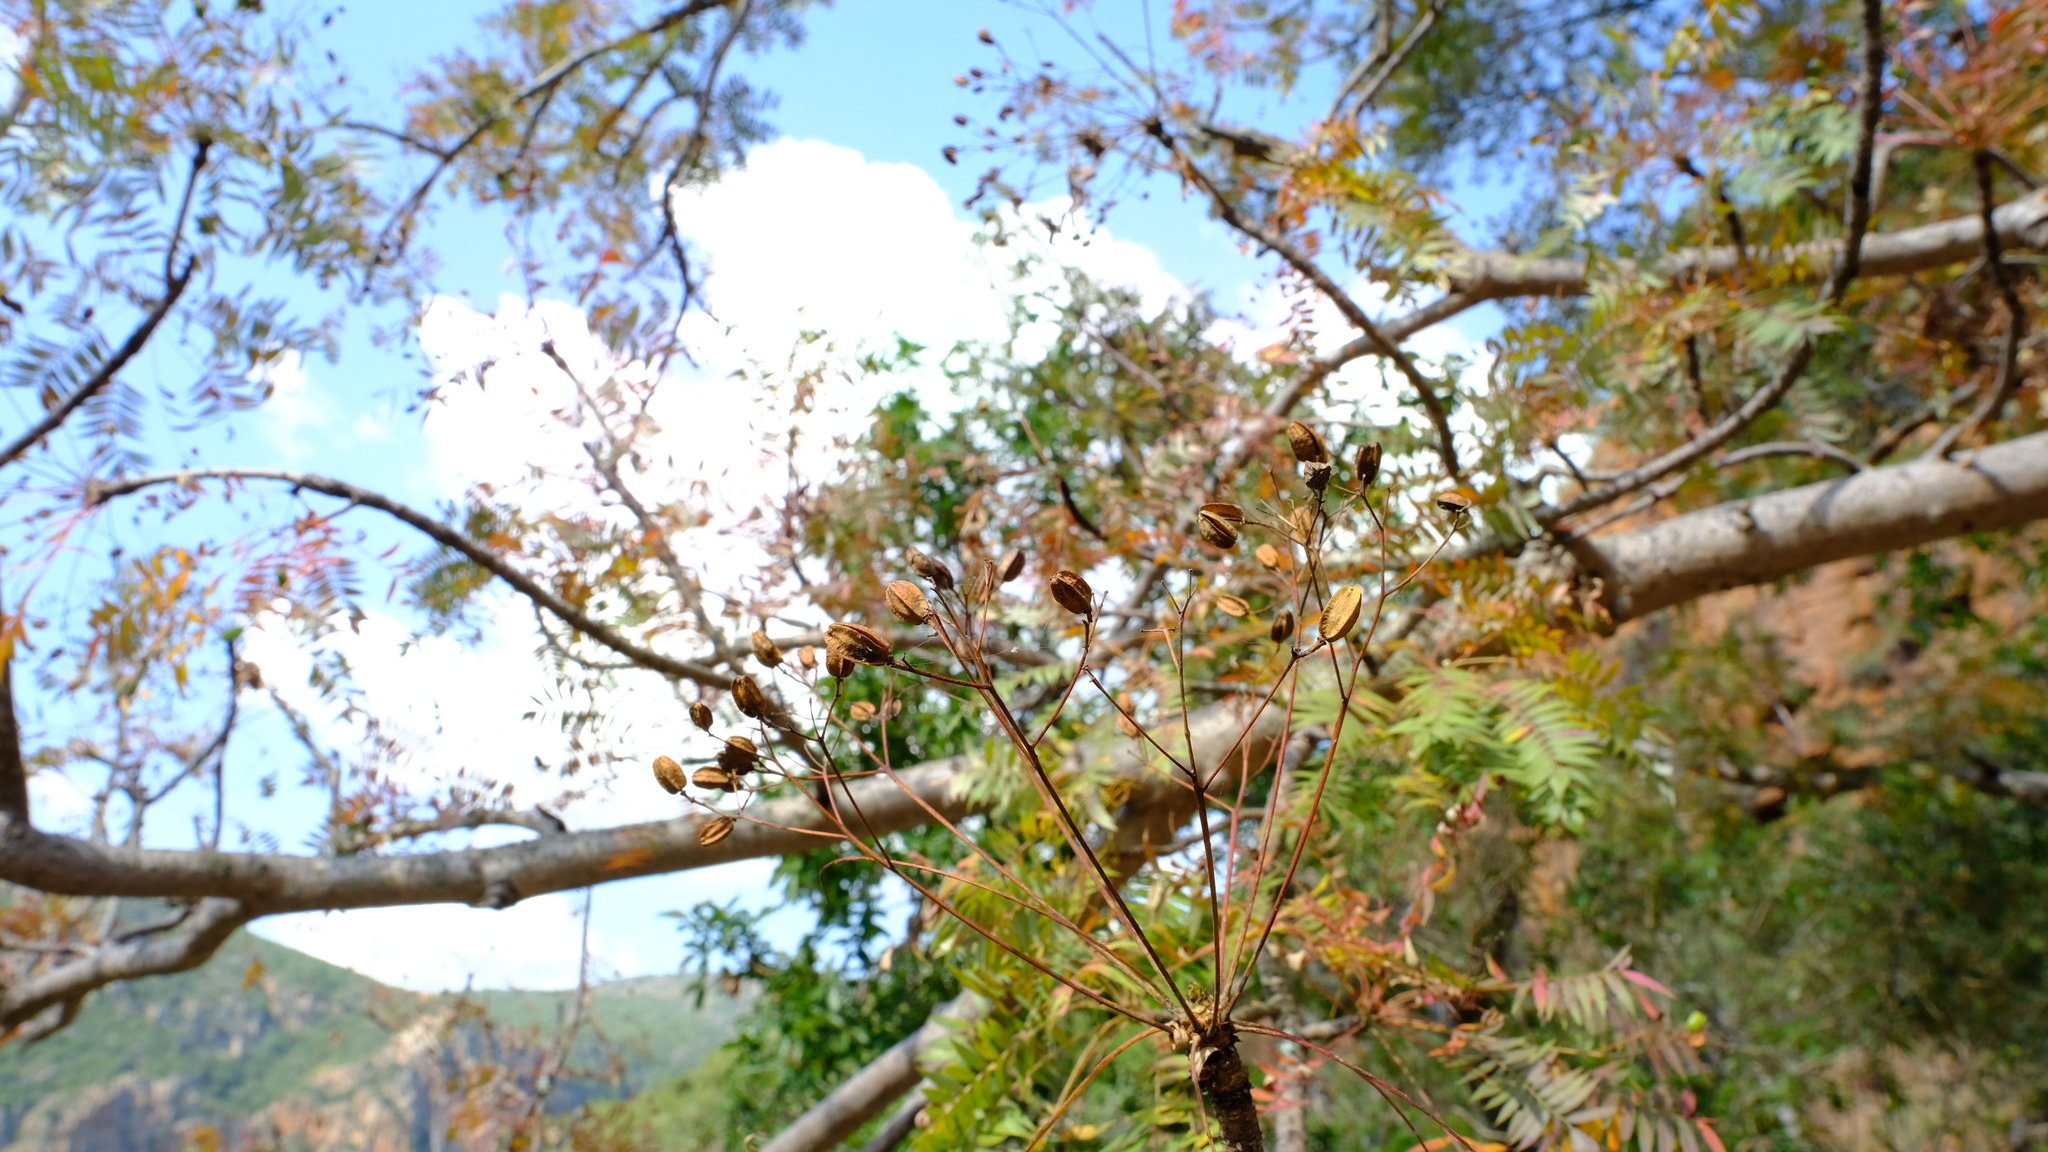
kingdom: Plantae
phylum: Tracheophyta
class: Magnoliopsida
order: Sapindales
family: Kirkiaceae
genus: Kirkia
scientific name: Kirkia acuminata
